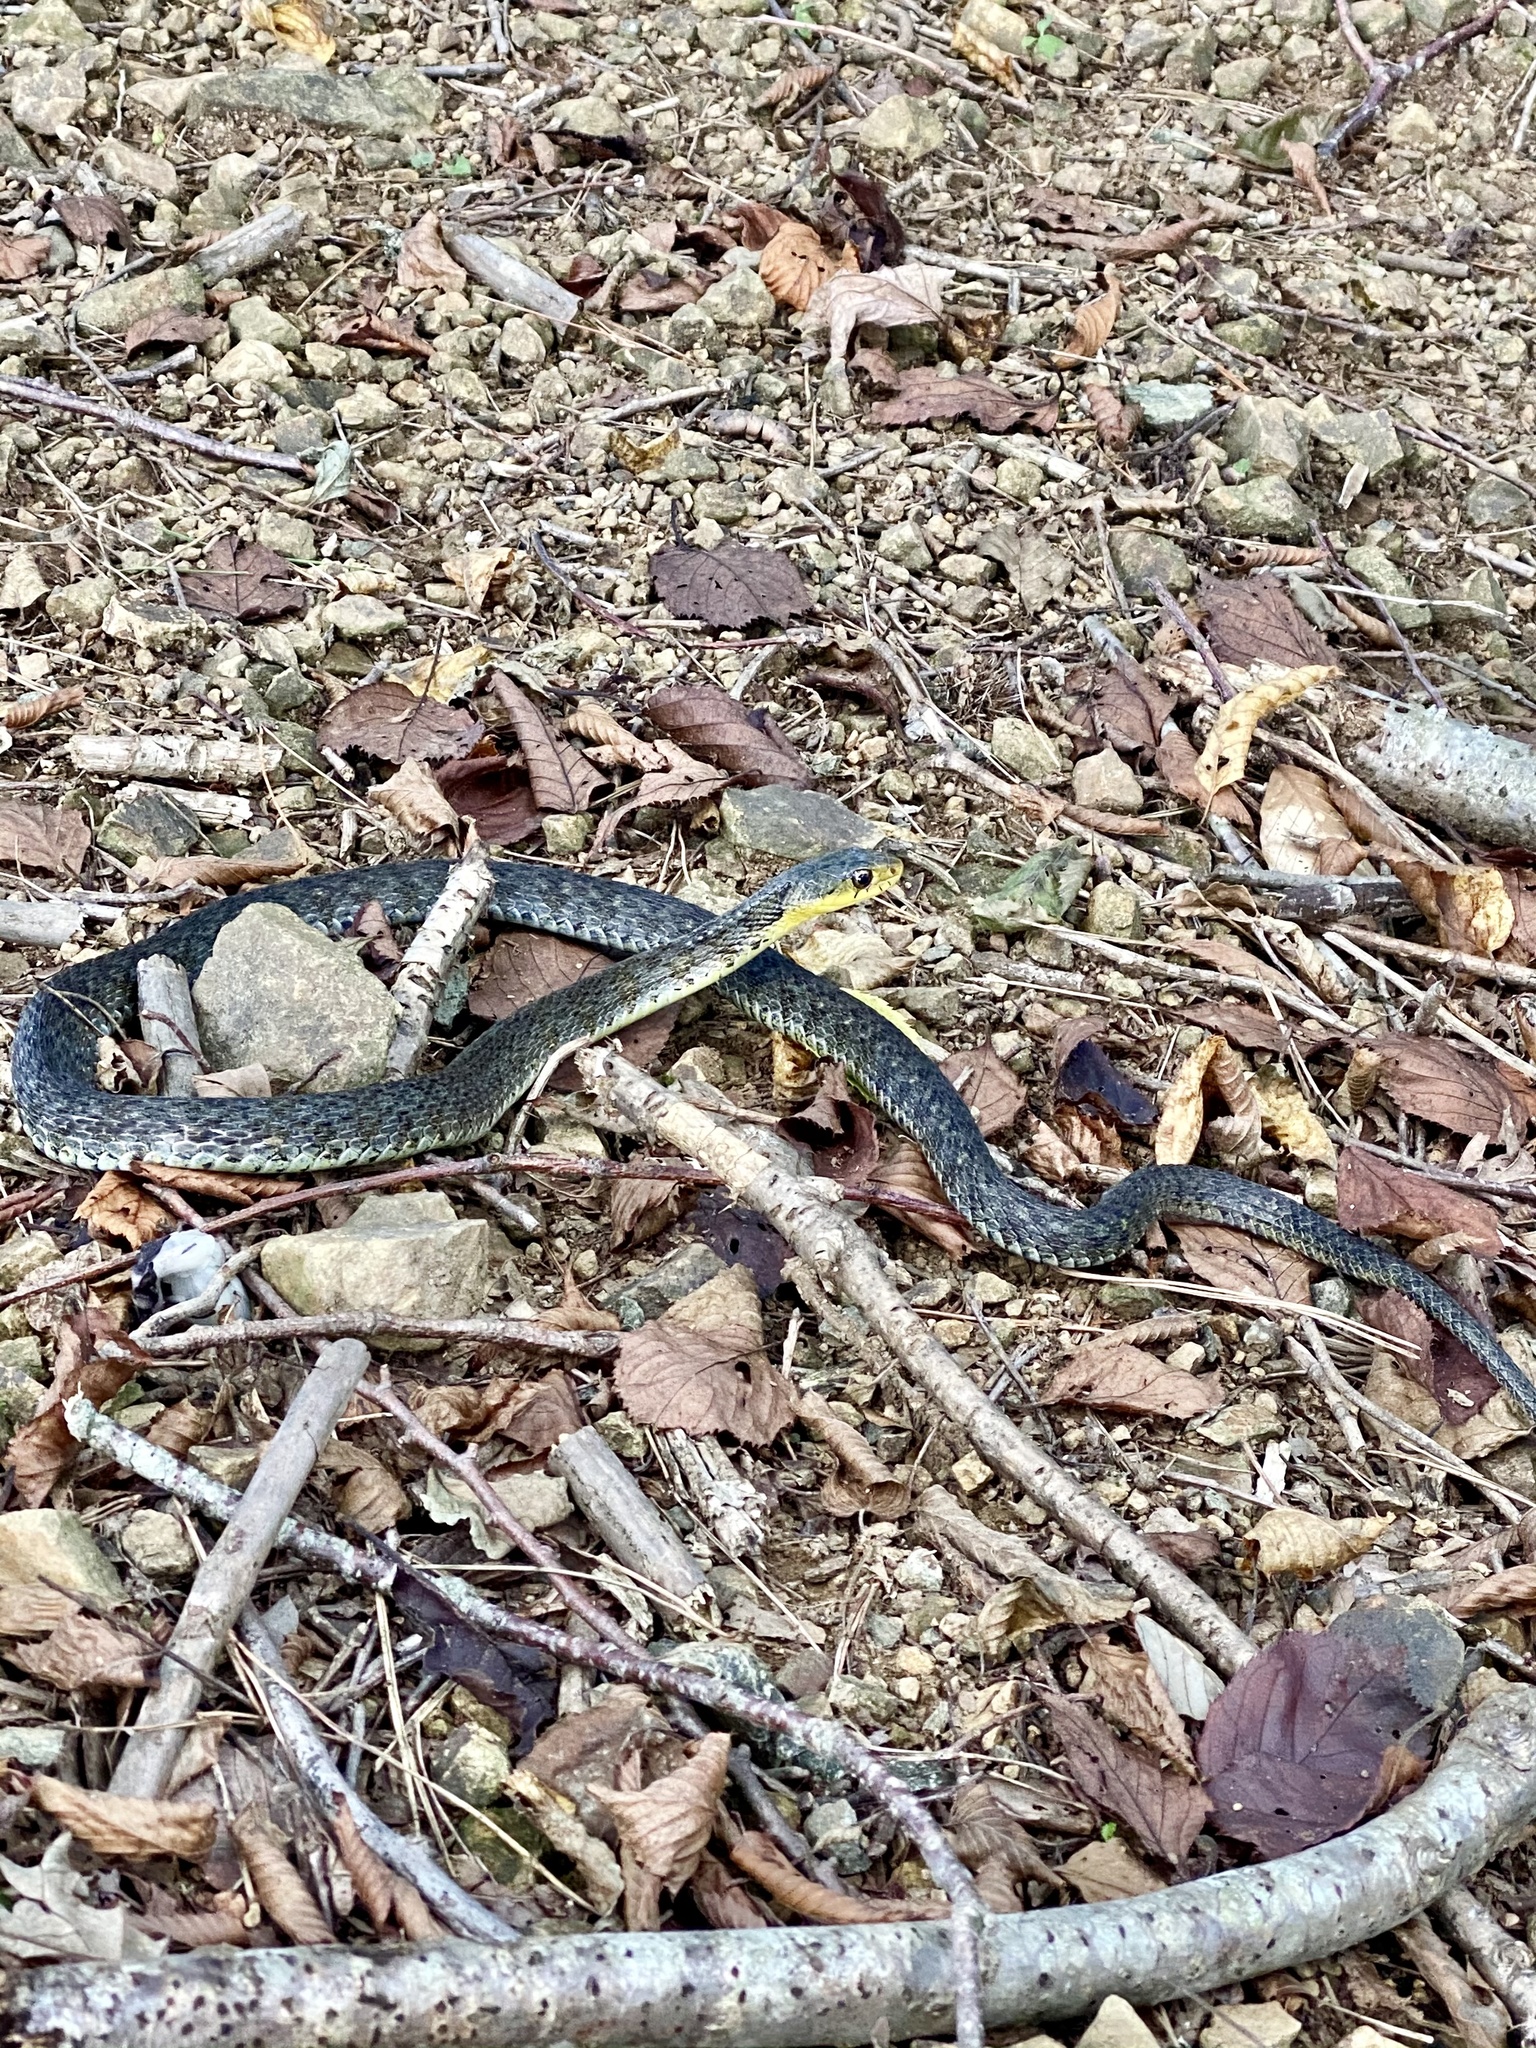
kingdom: Animalia
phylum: Chordata
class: Squamata
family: Colubridae
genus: Rhabdophis
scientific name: Rhabdophis tigrinus
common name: Tiger keelback
